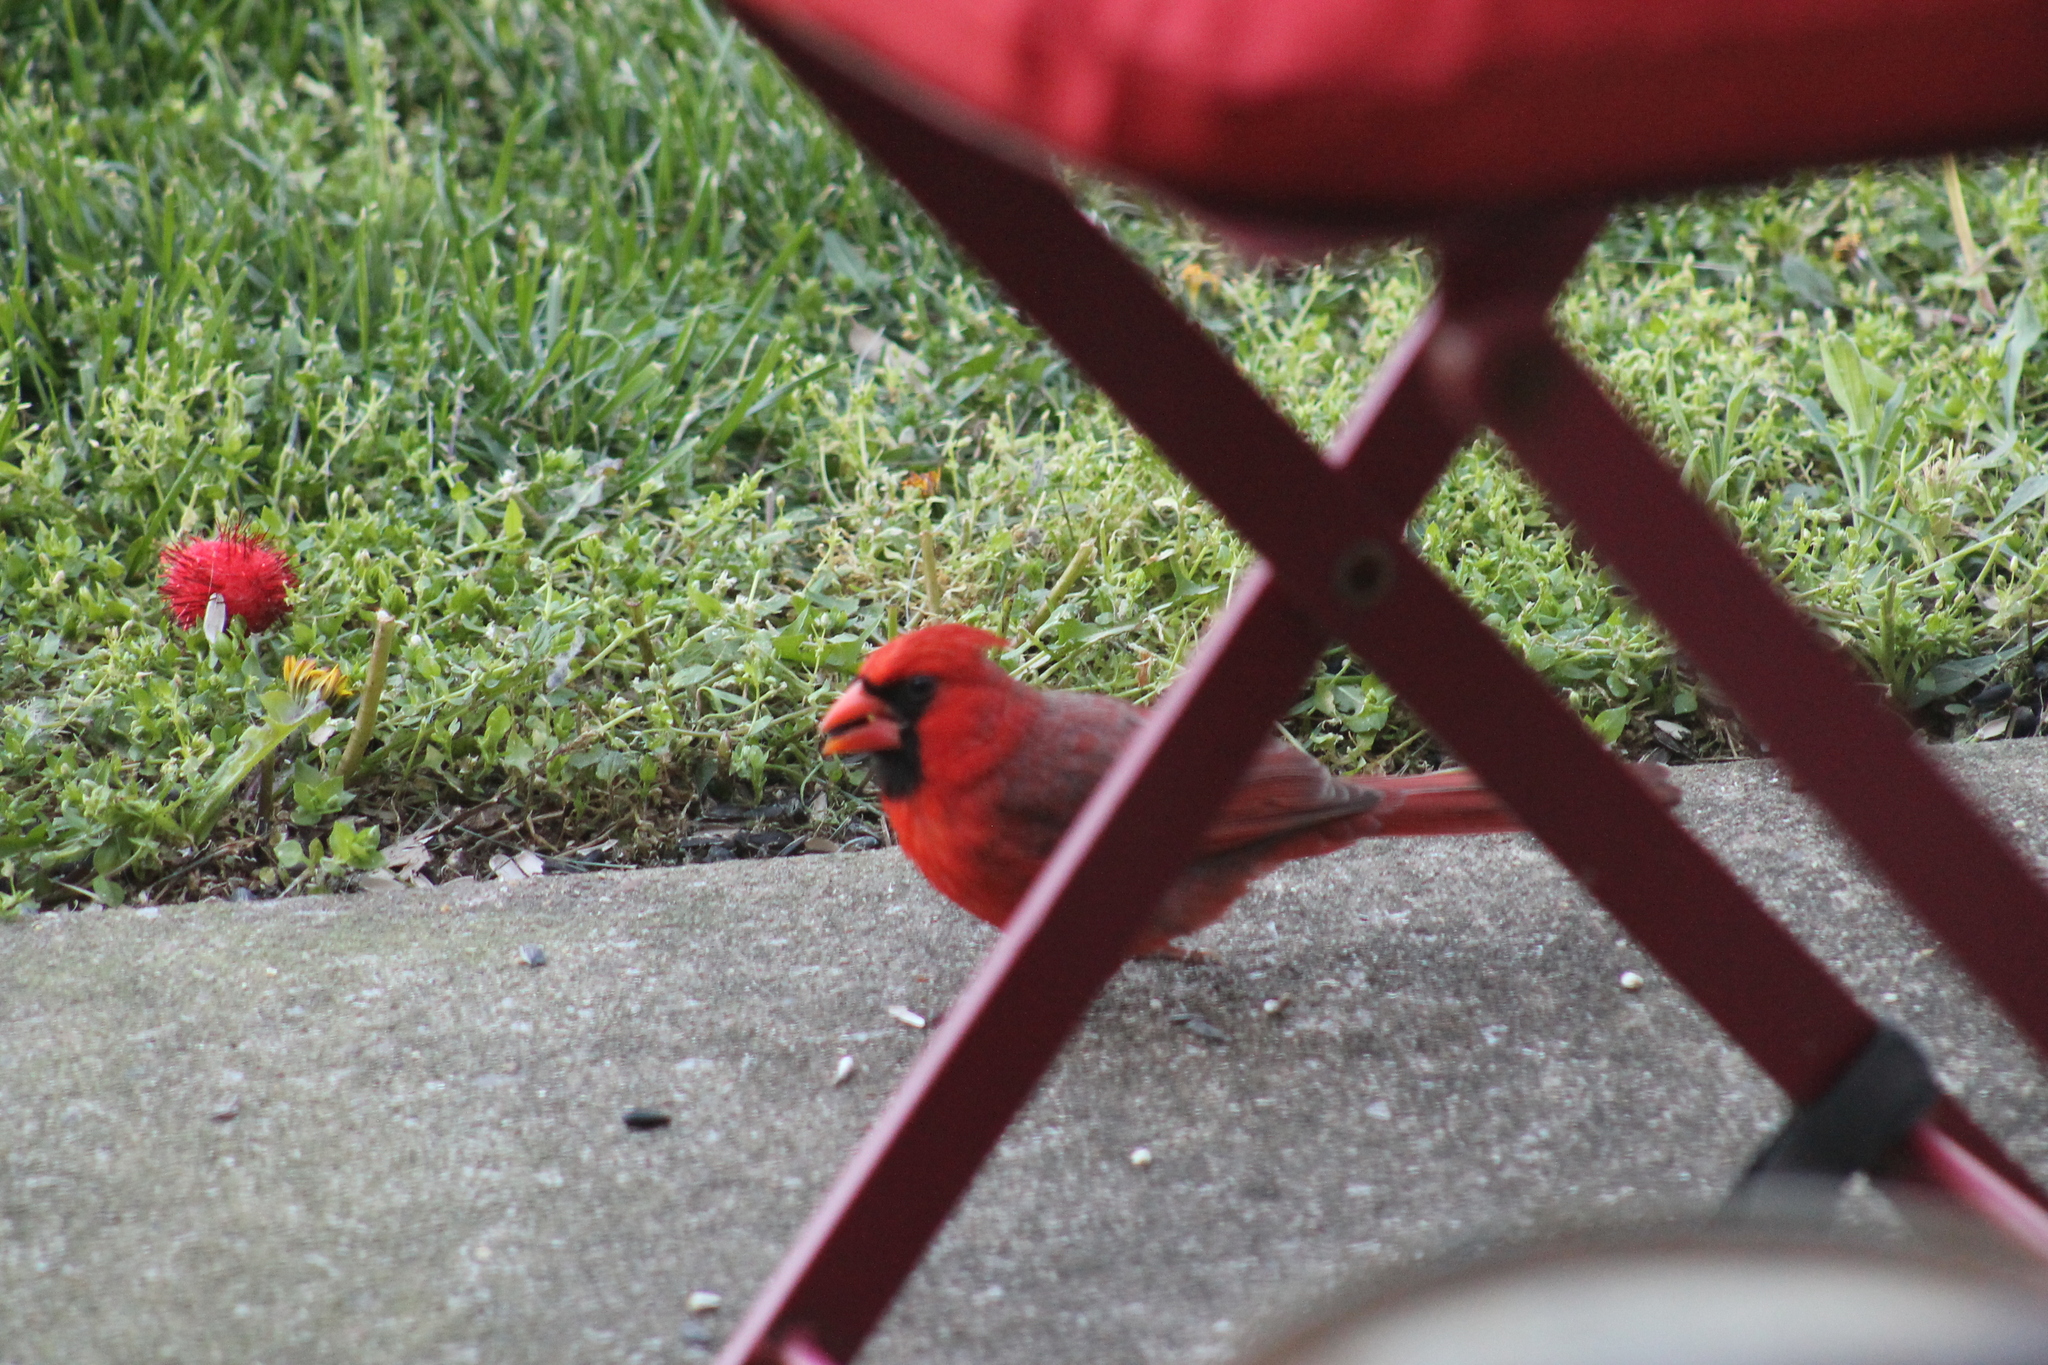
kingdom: Animalia
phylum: Chordata
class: Aves
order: Passeriformes
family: Cardinalidae
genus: Cardinalis
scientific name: Cardinalis cardinalis
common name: Northern cardinal
